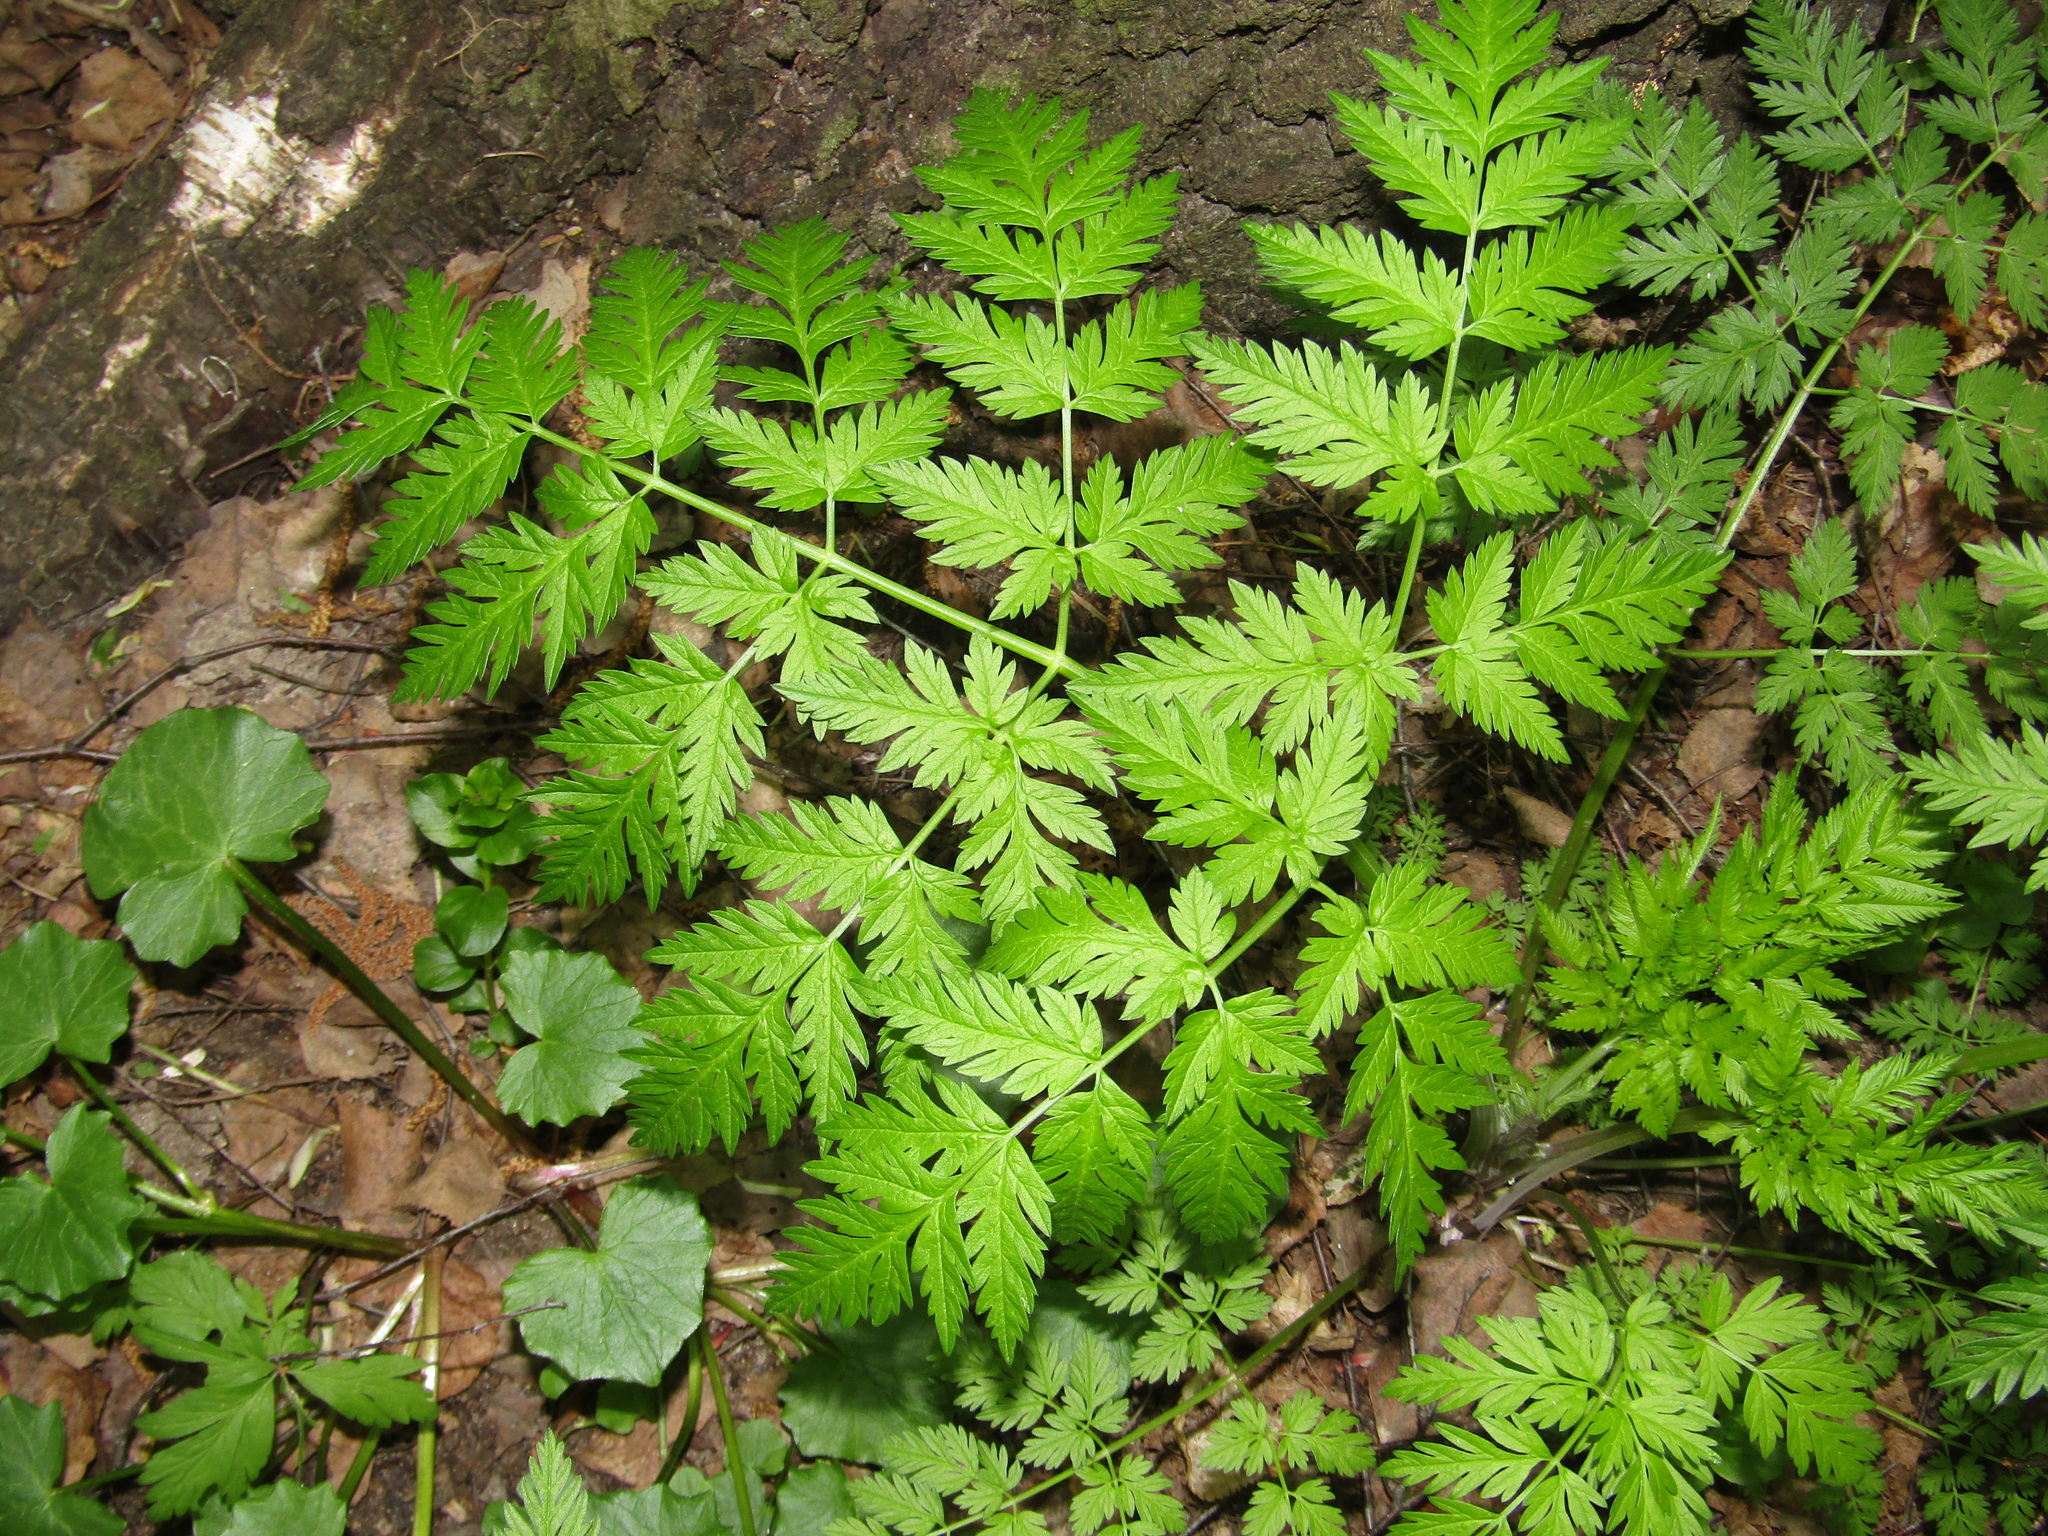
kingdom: Plantae
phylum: Tracheophyta
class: Magnoliopsida
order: Apiales
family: Apiaceae
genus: Anthriscus
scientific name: Anthriscus sylvestris
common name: Cow parsley
